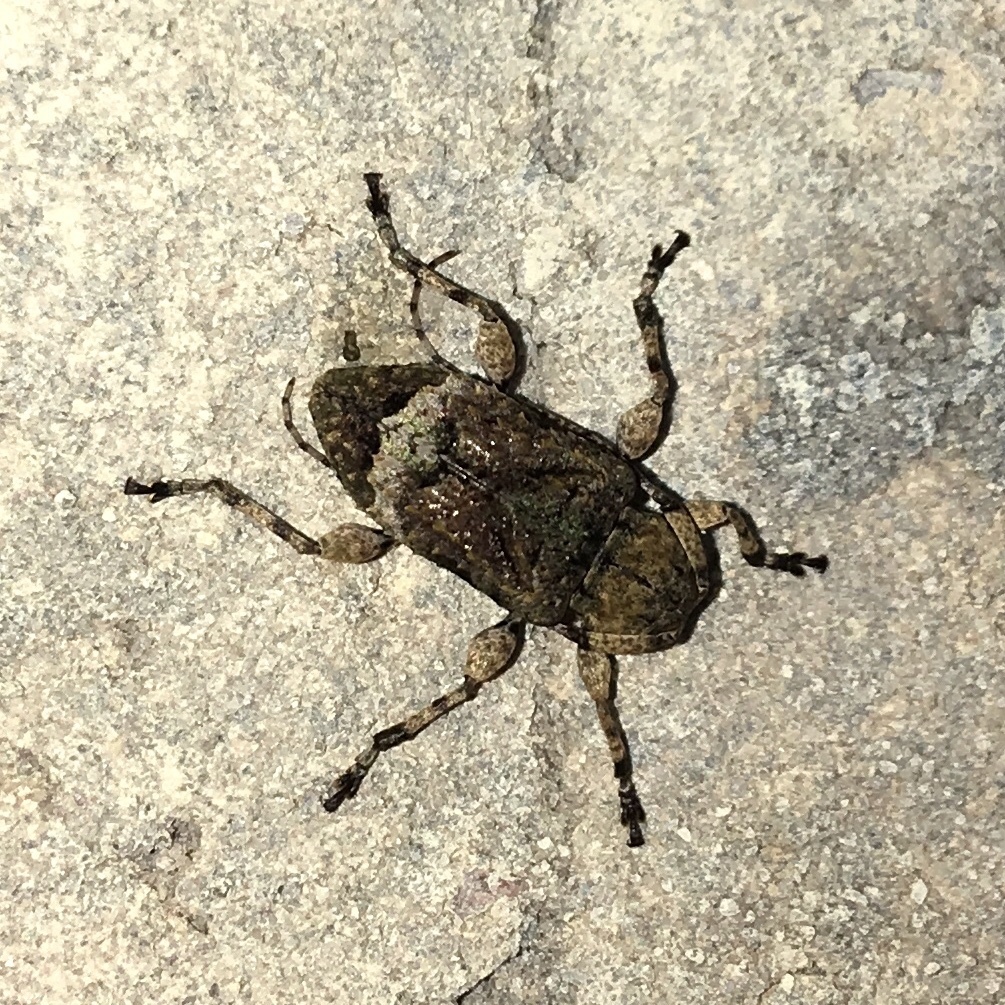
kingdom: Animalia
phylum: Arthropoda
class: Insecta
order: Coleoptera
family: Cerambycidae
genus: Leptostylus
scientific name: Leptostylus transversus
